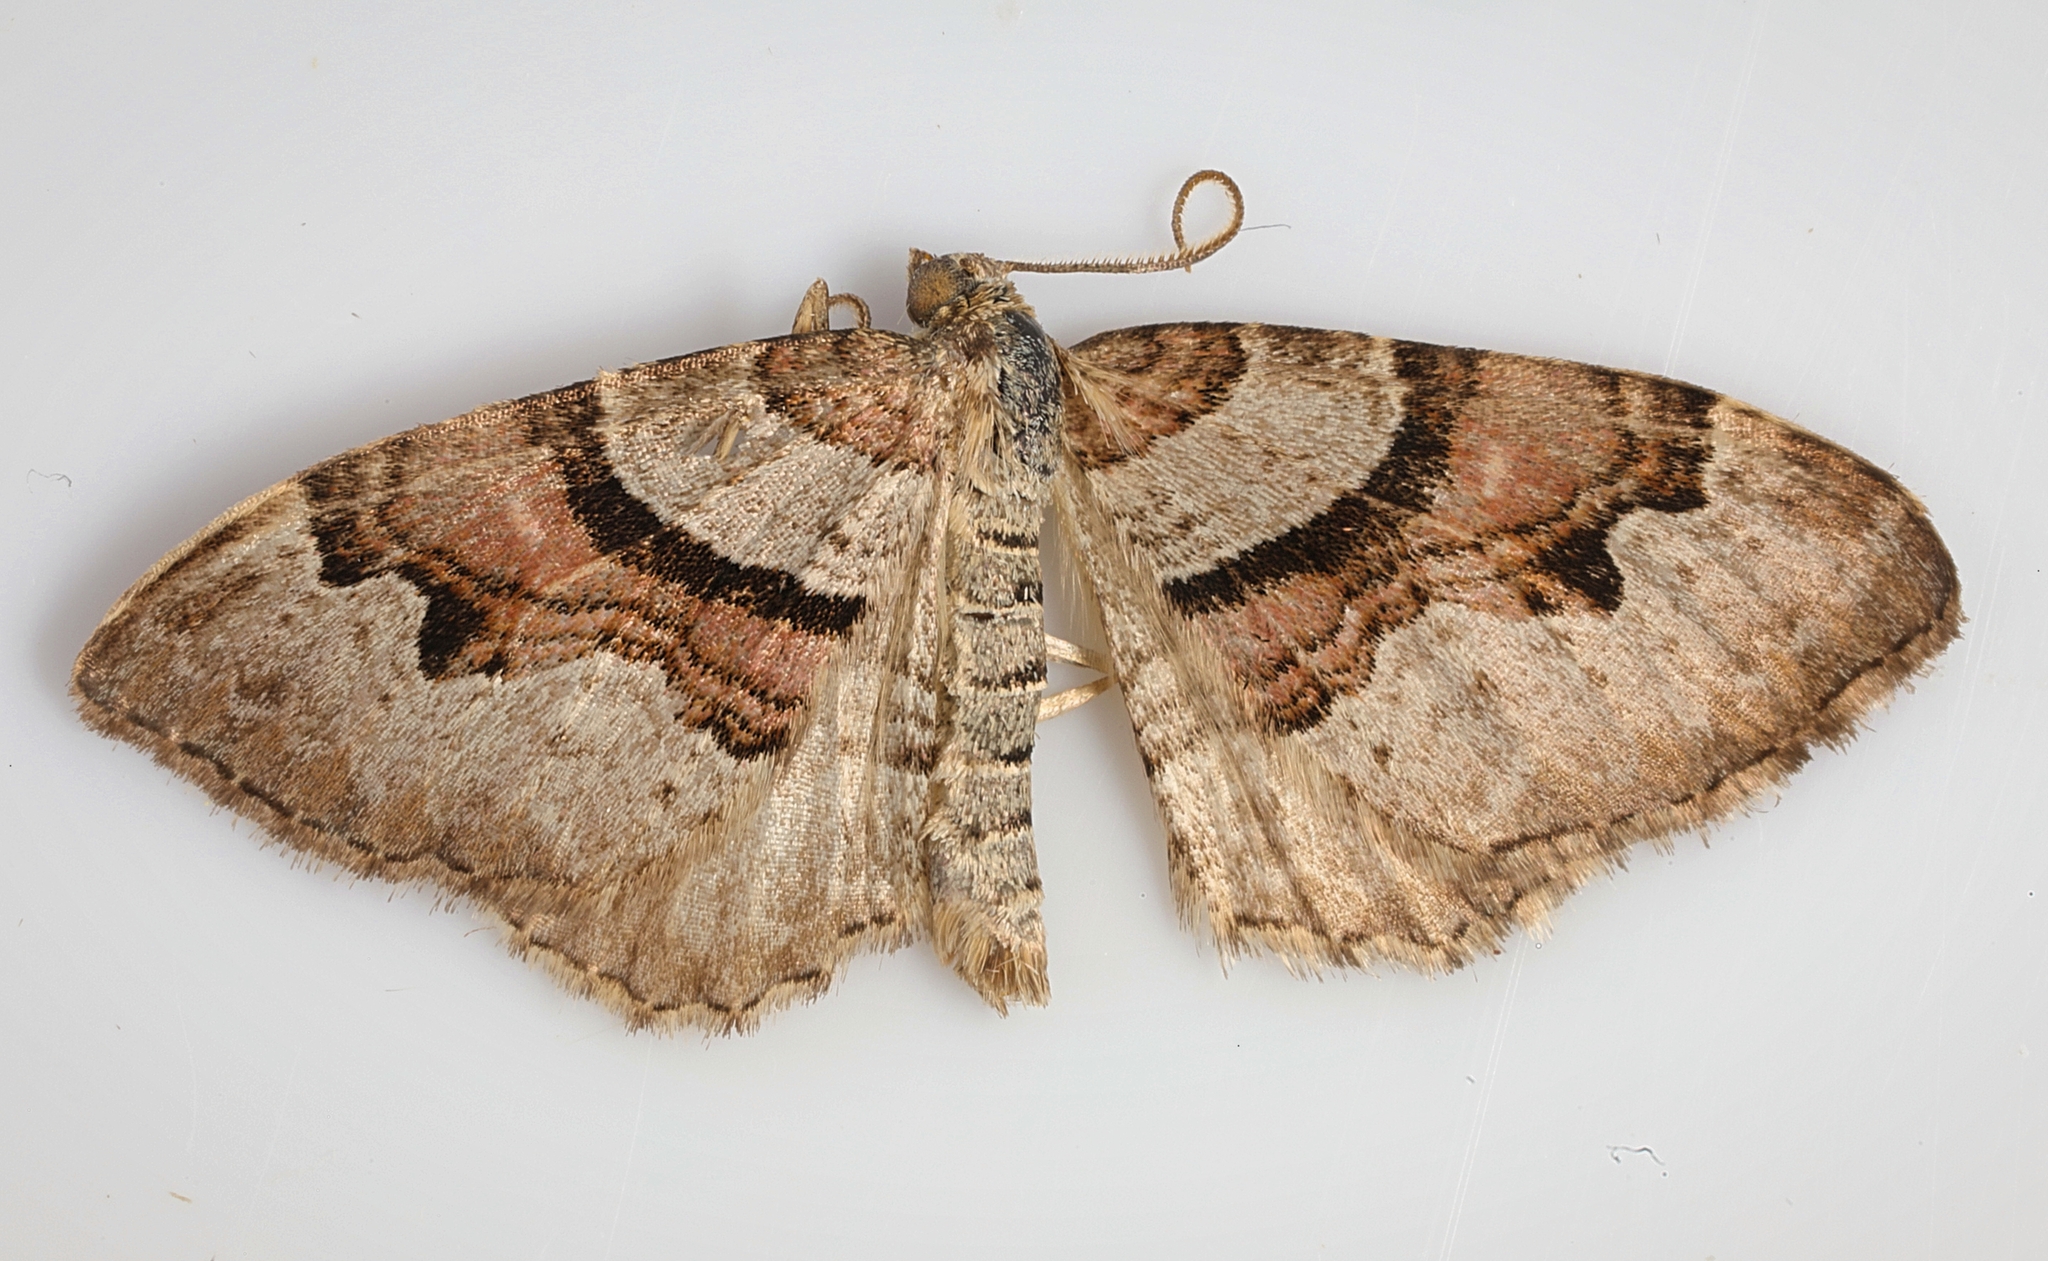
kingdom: Animalia
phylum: Arthropoda
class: Insecta
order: Lepidoptera
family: Geometridae
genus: Xanthorhoe
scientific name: Xanthorhoe designata
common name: Flame carpet
